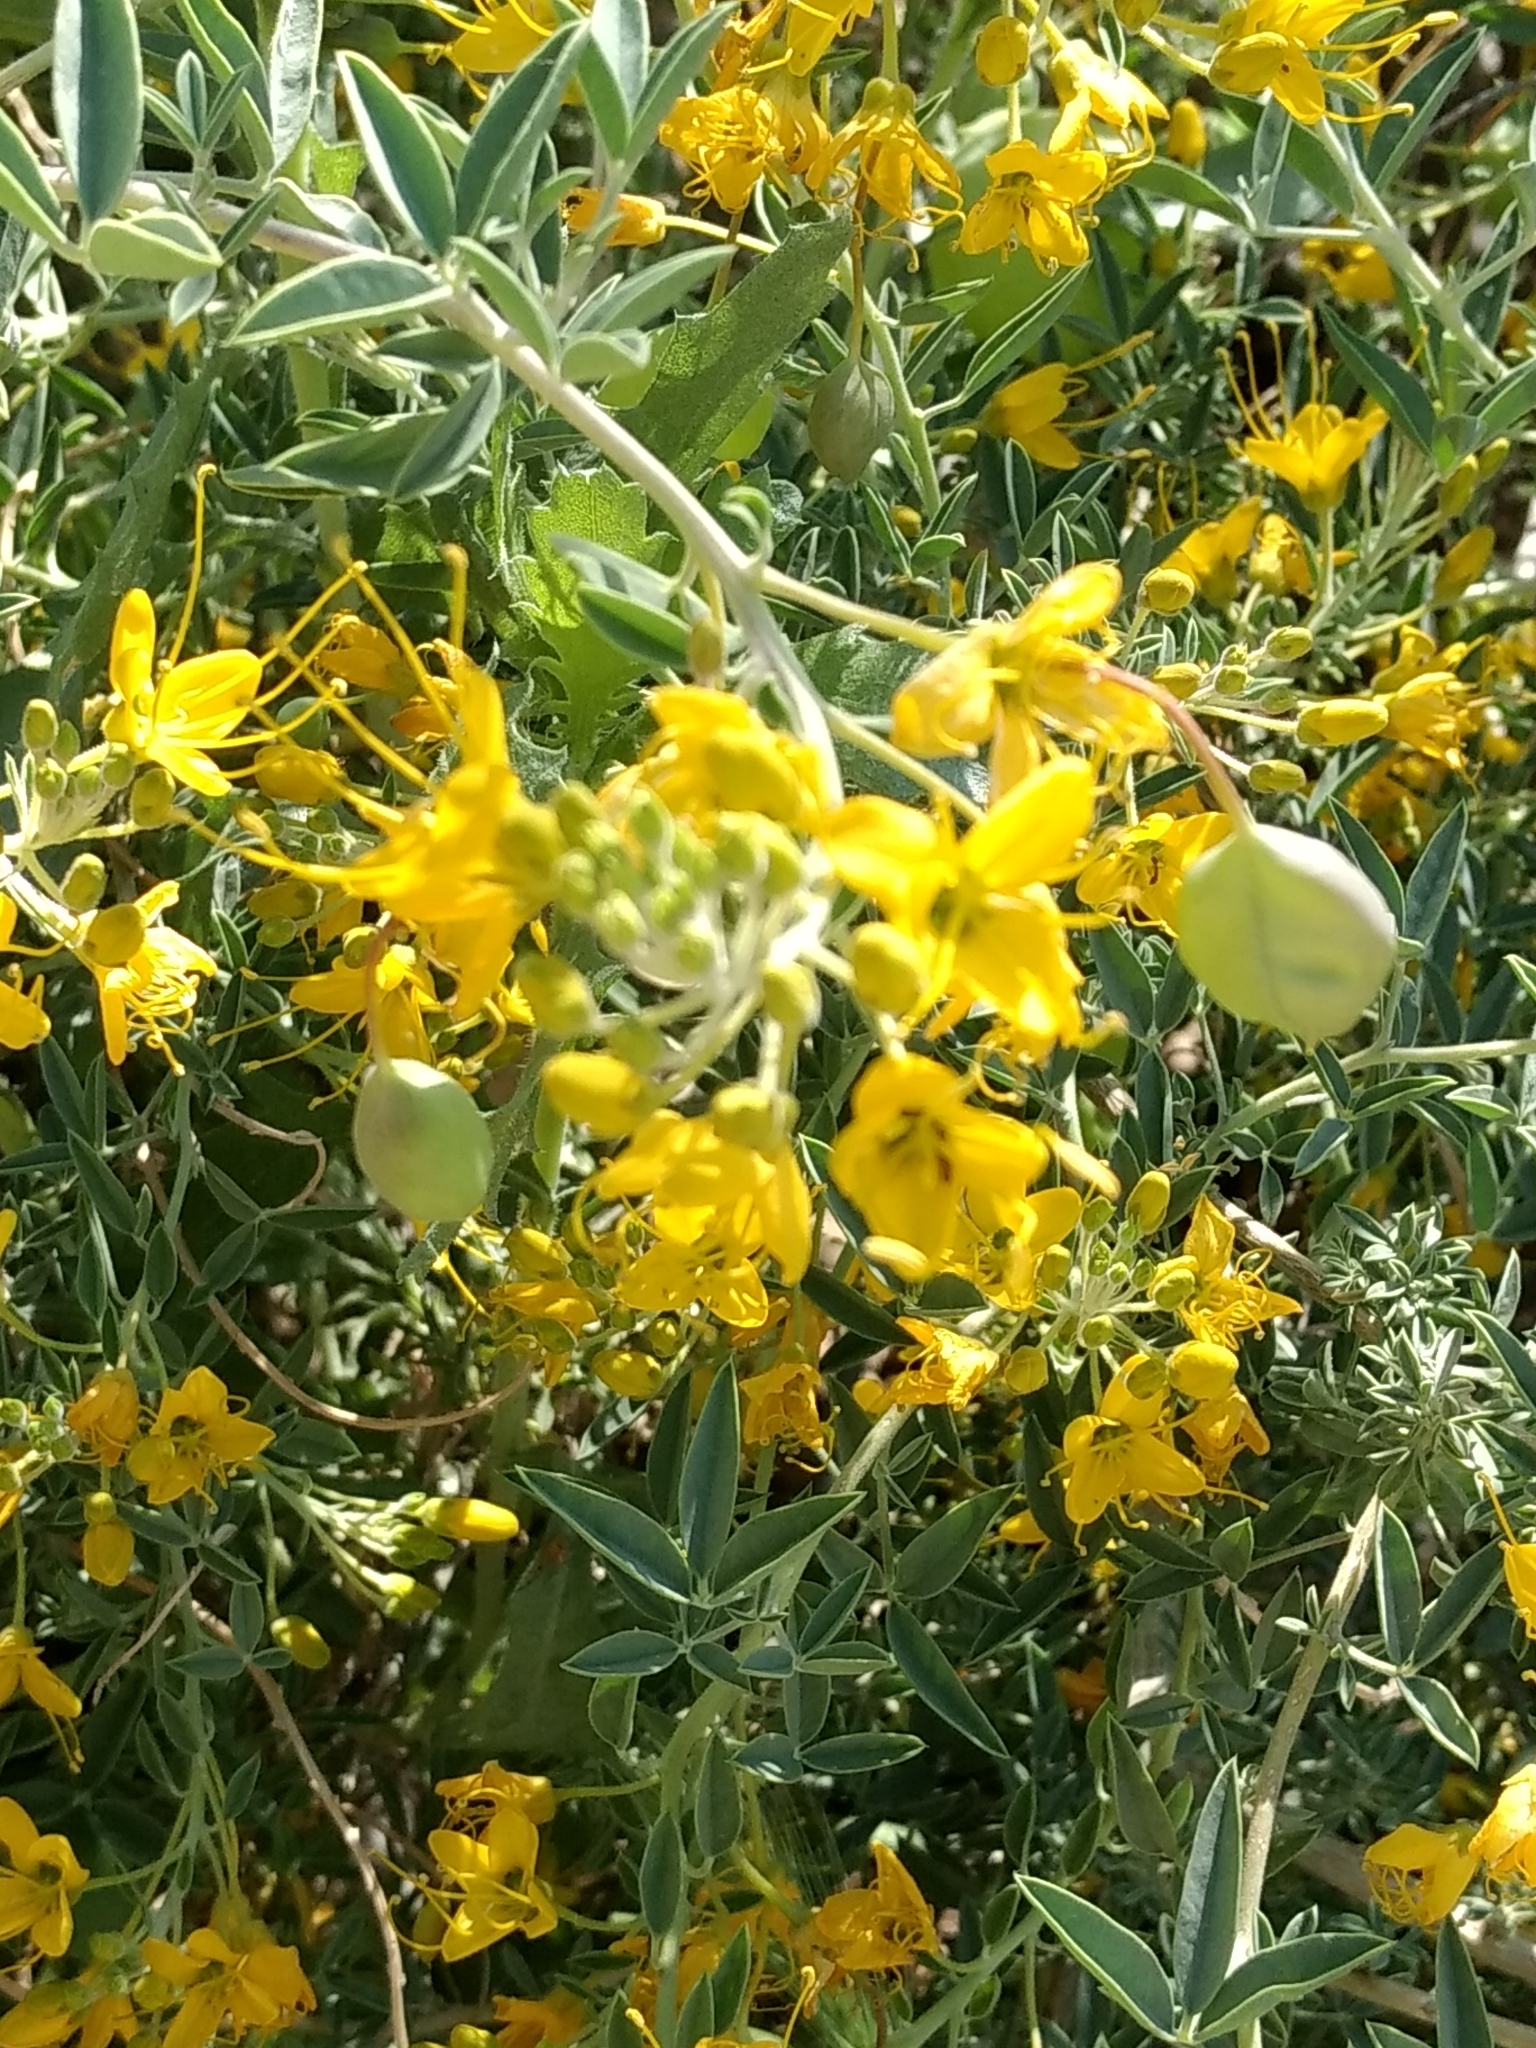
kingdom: Plantae
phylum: Tracheophyta
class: Magnoliopsida
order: Brassicales
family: Cleomaceae
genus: Cleomella
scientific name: Cleomella arborea
